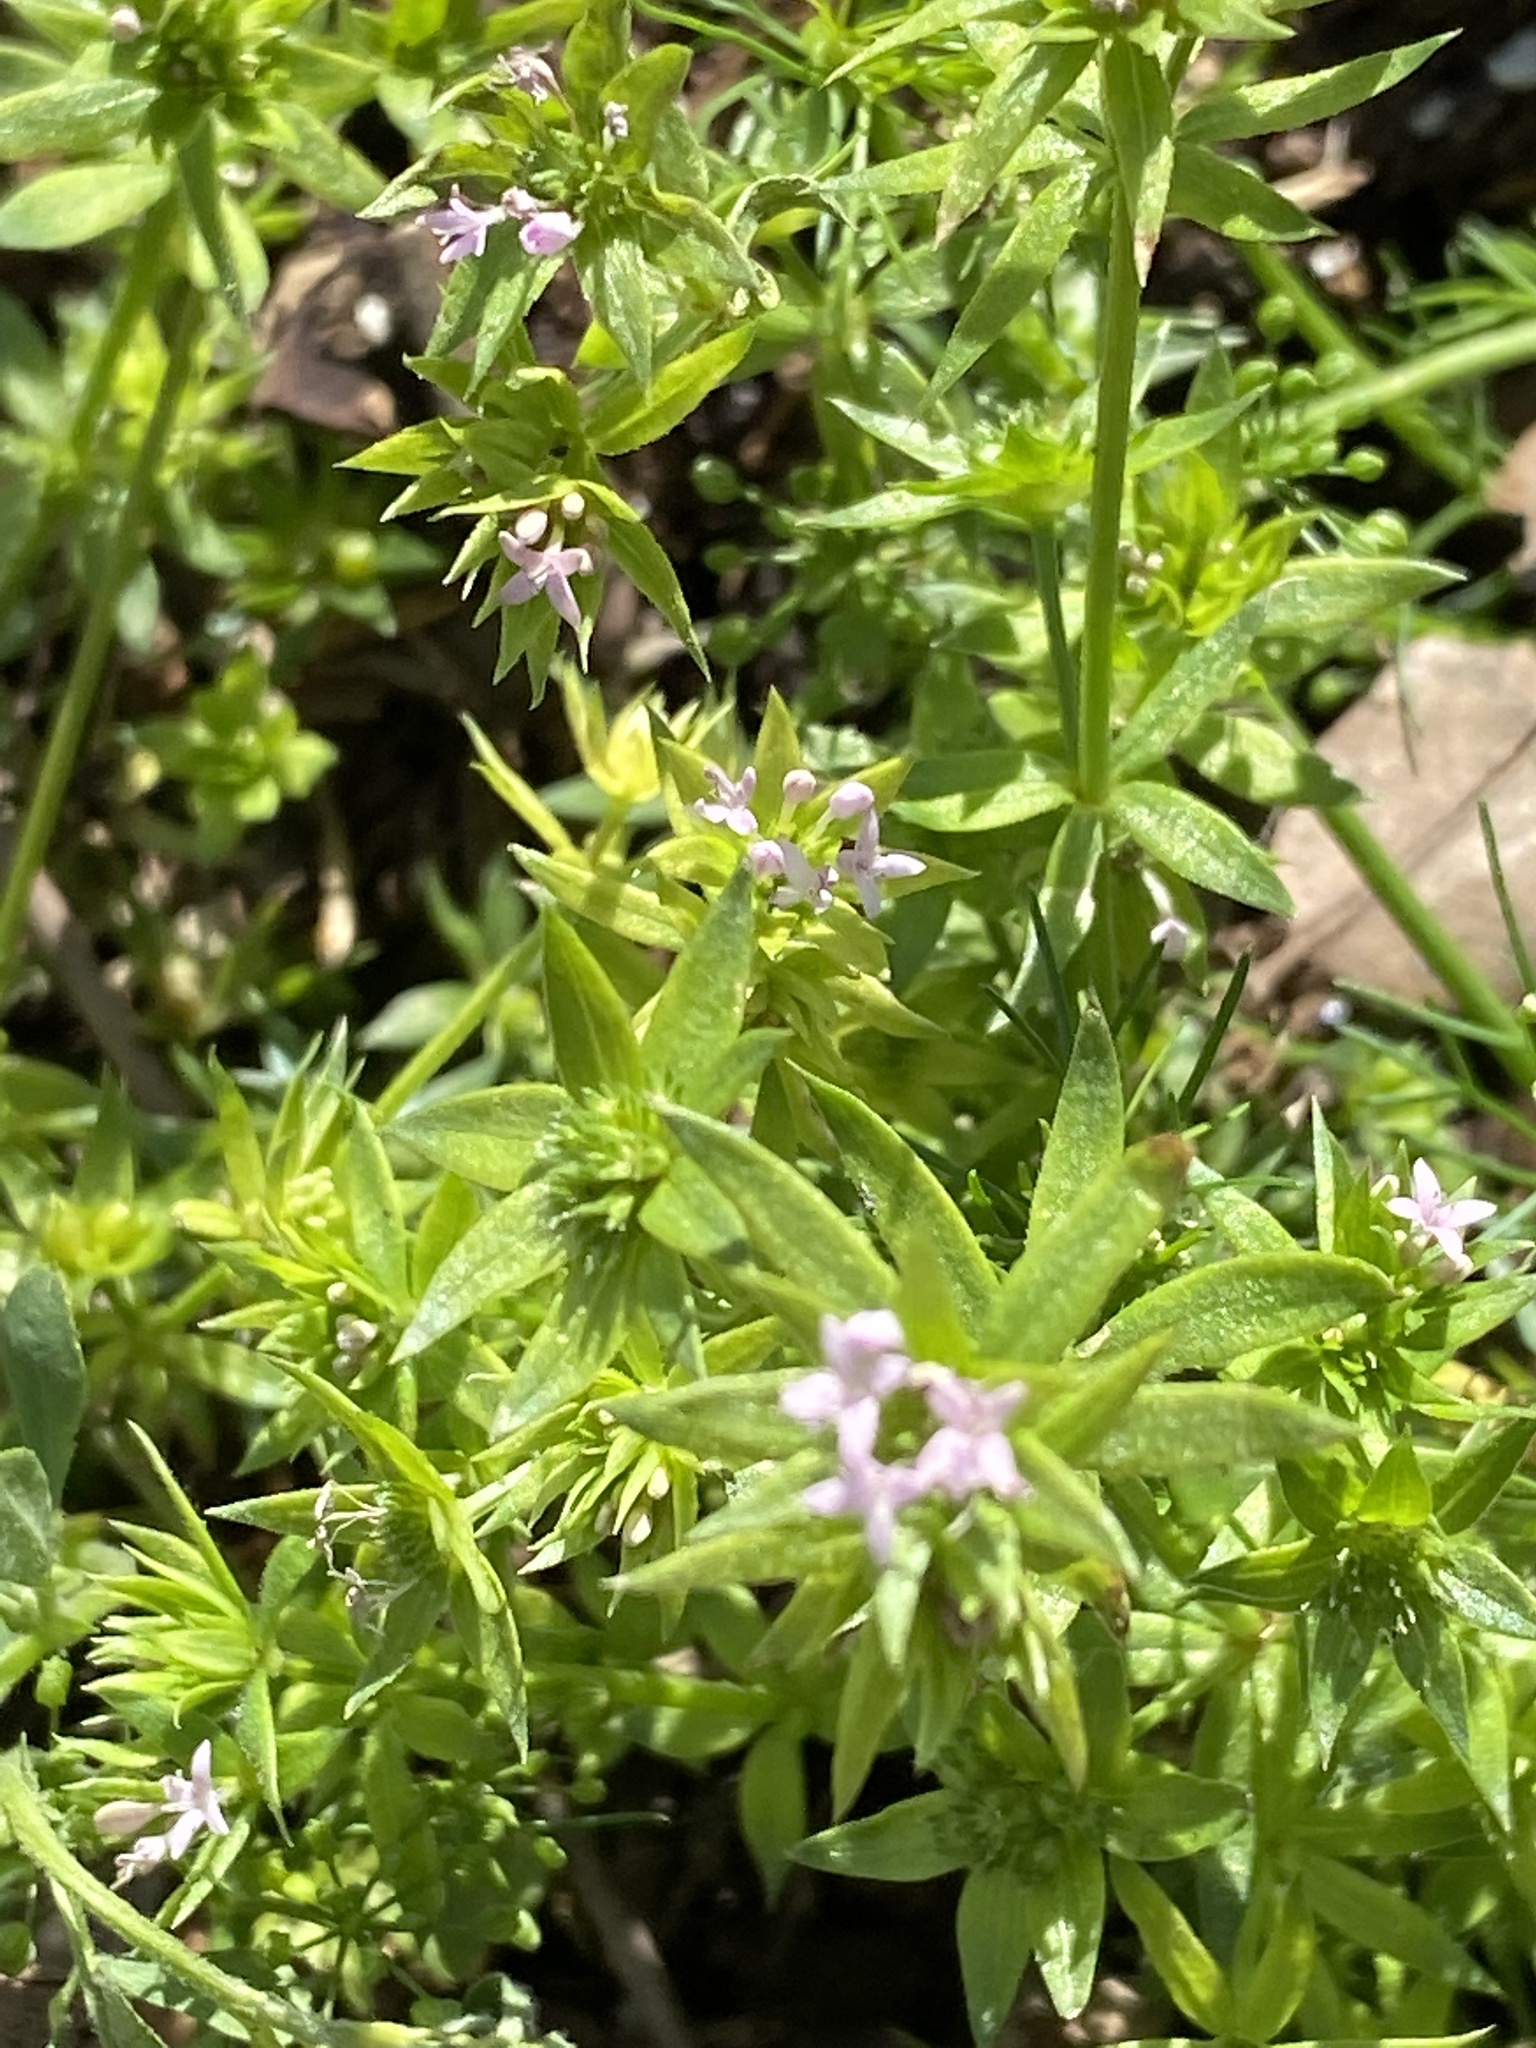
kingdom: Plantae
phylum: Tracheophyta
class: Magnoliopsida
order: Gentianales
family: Rubiaceae
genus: Sherardia
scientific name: Sherardia arvensis
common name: Field madder
